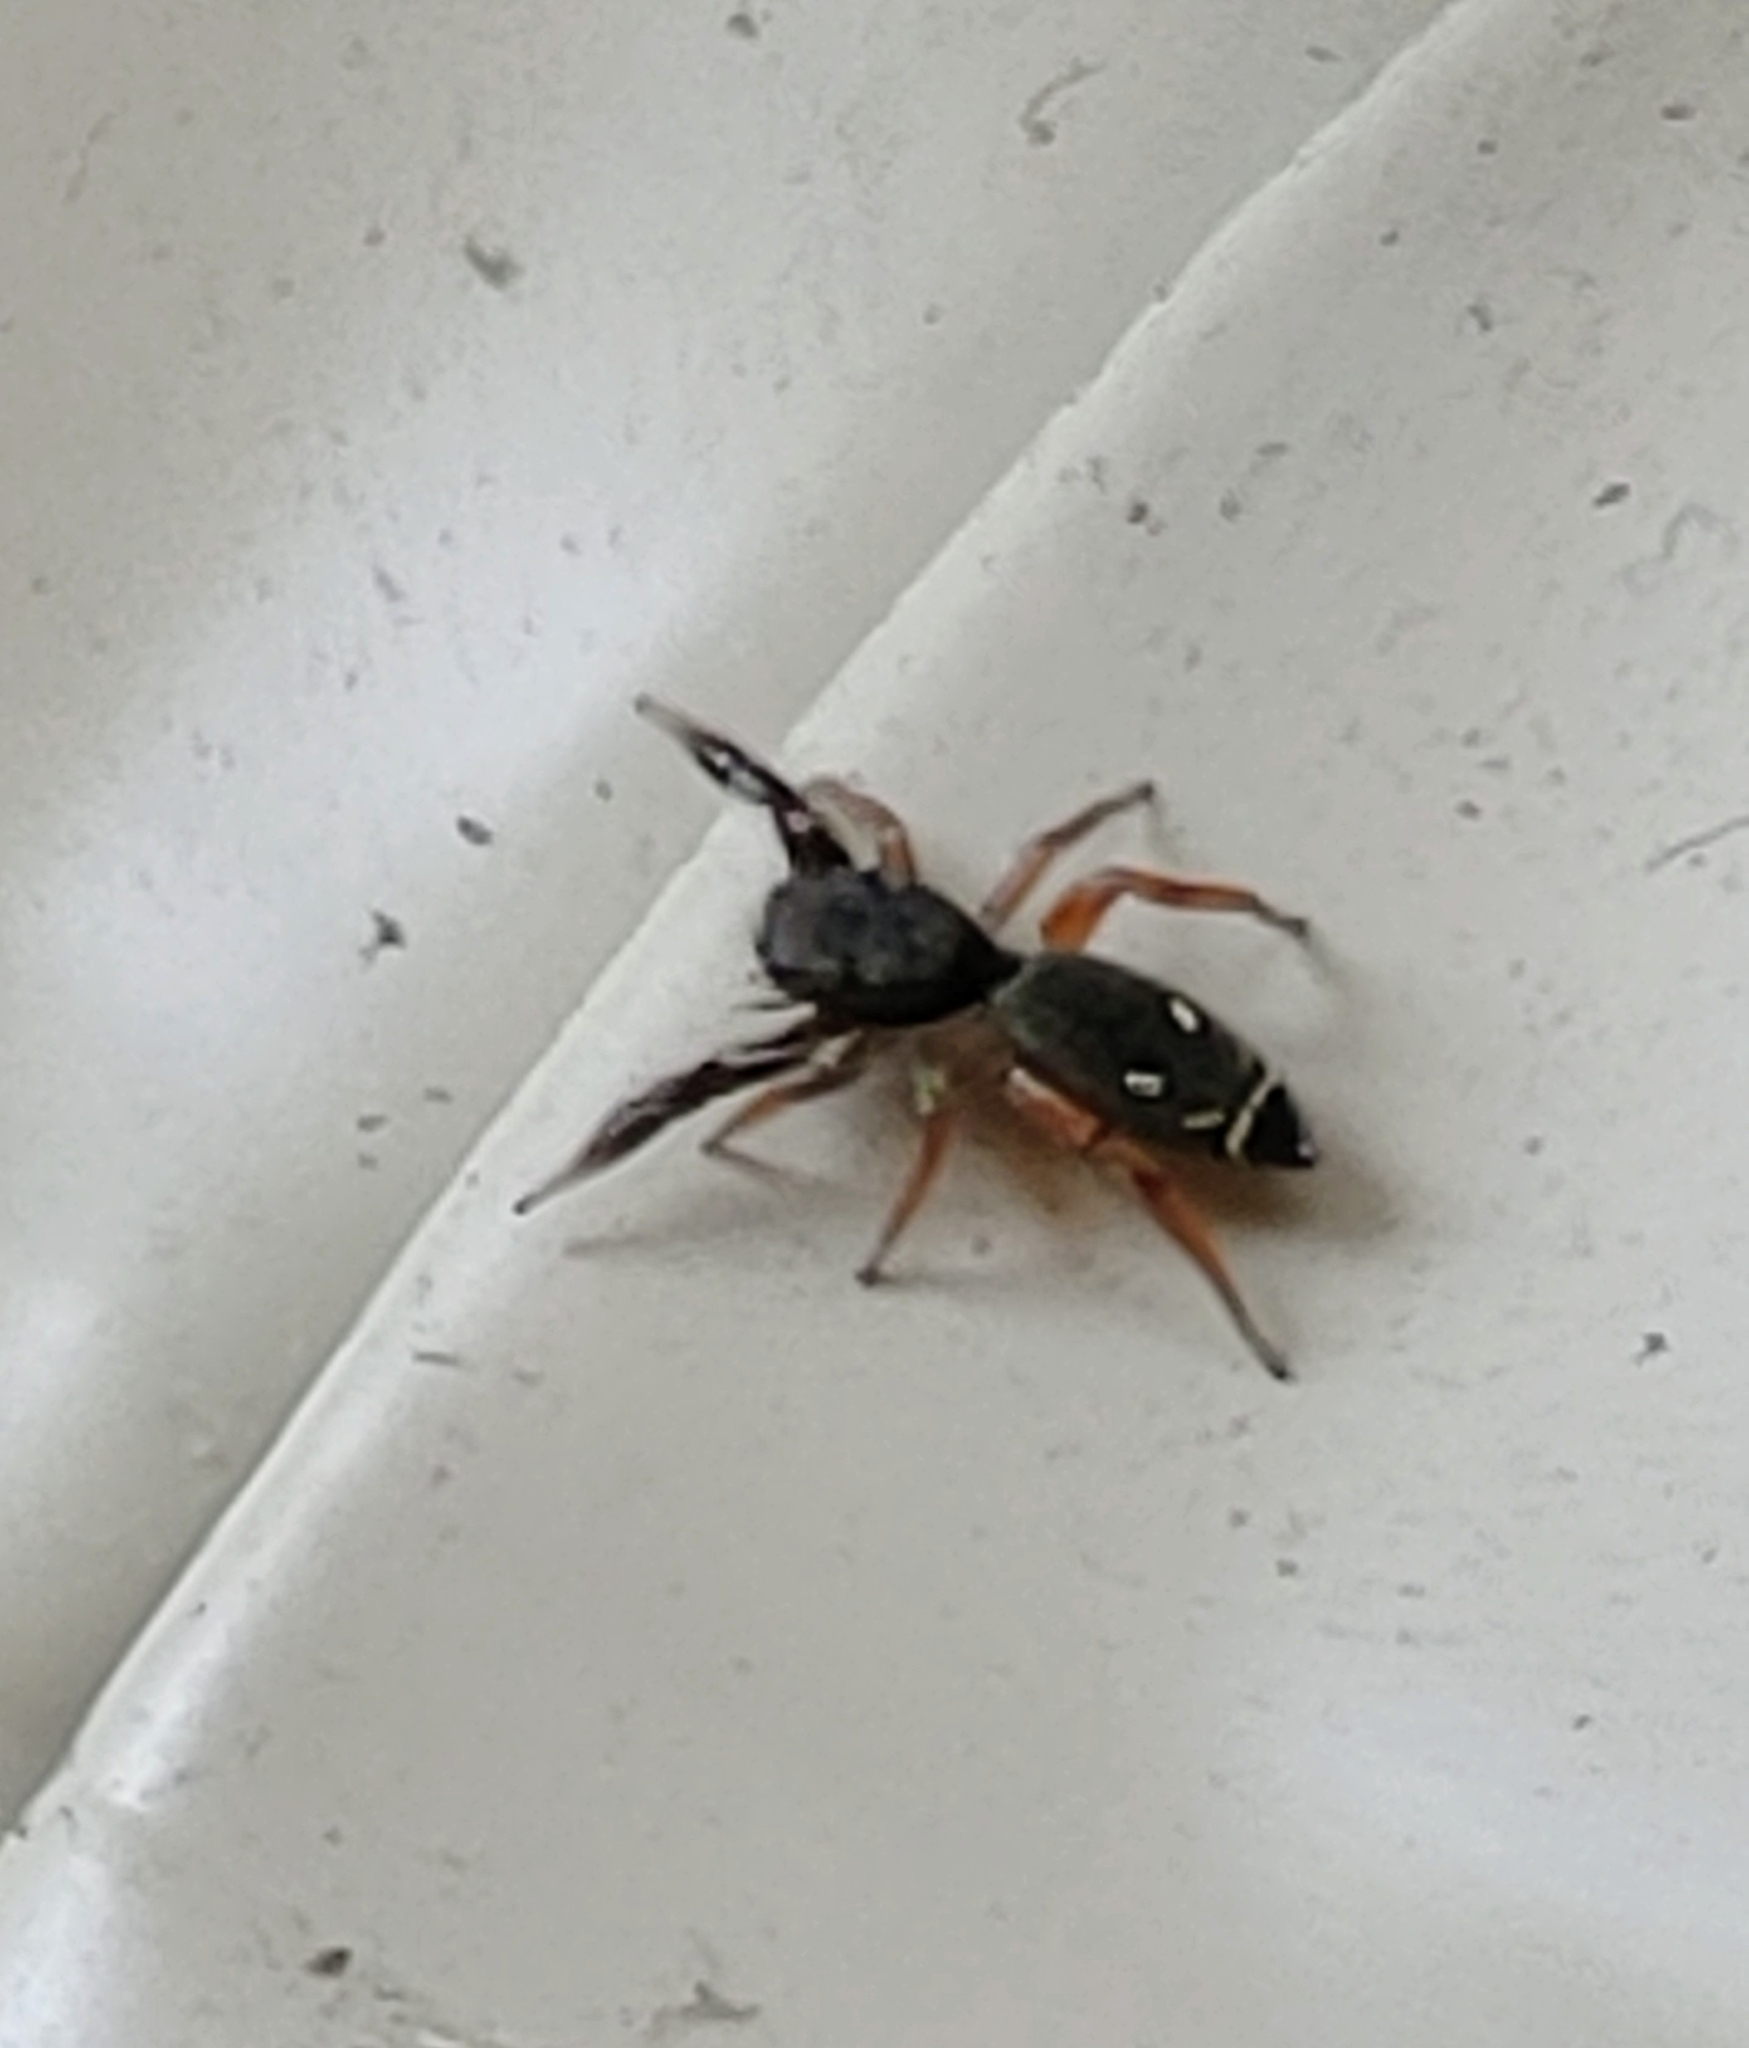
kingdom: Animalia
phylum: Arthropoda
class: Arachnida
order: Araneae
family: Salticidae
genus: Metacyrba
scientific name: Metacyrba punctata
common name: Jumping spiders
